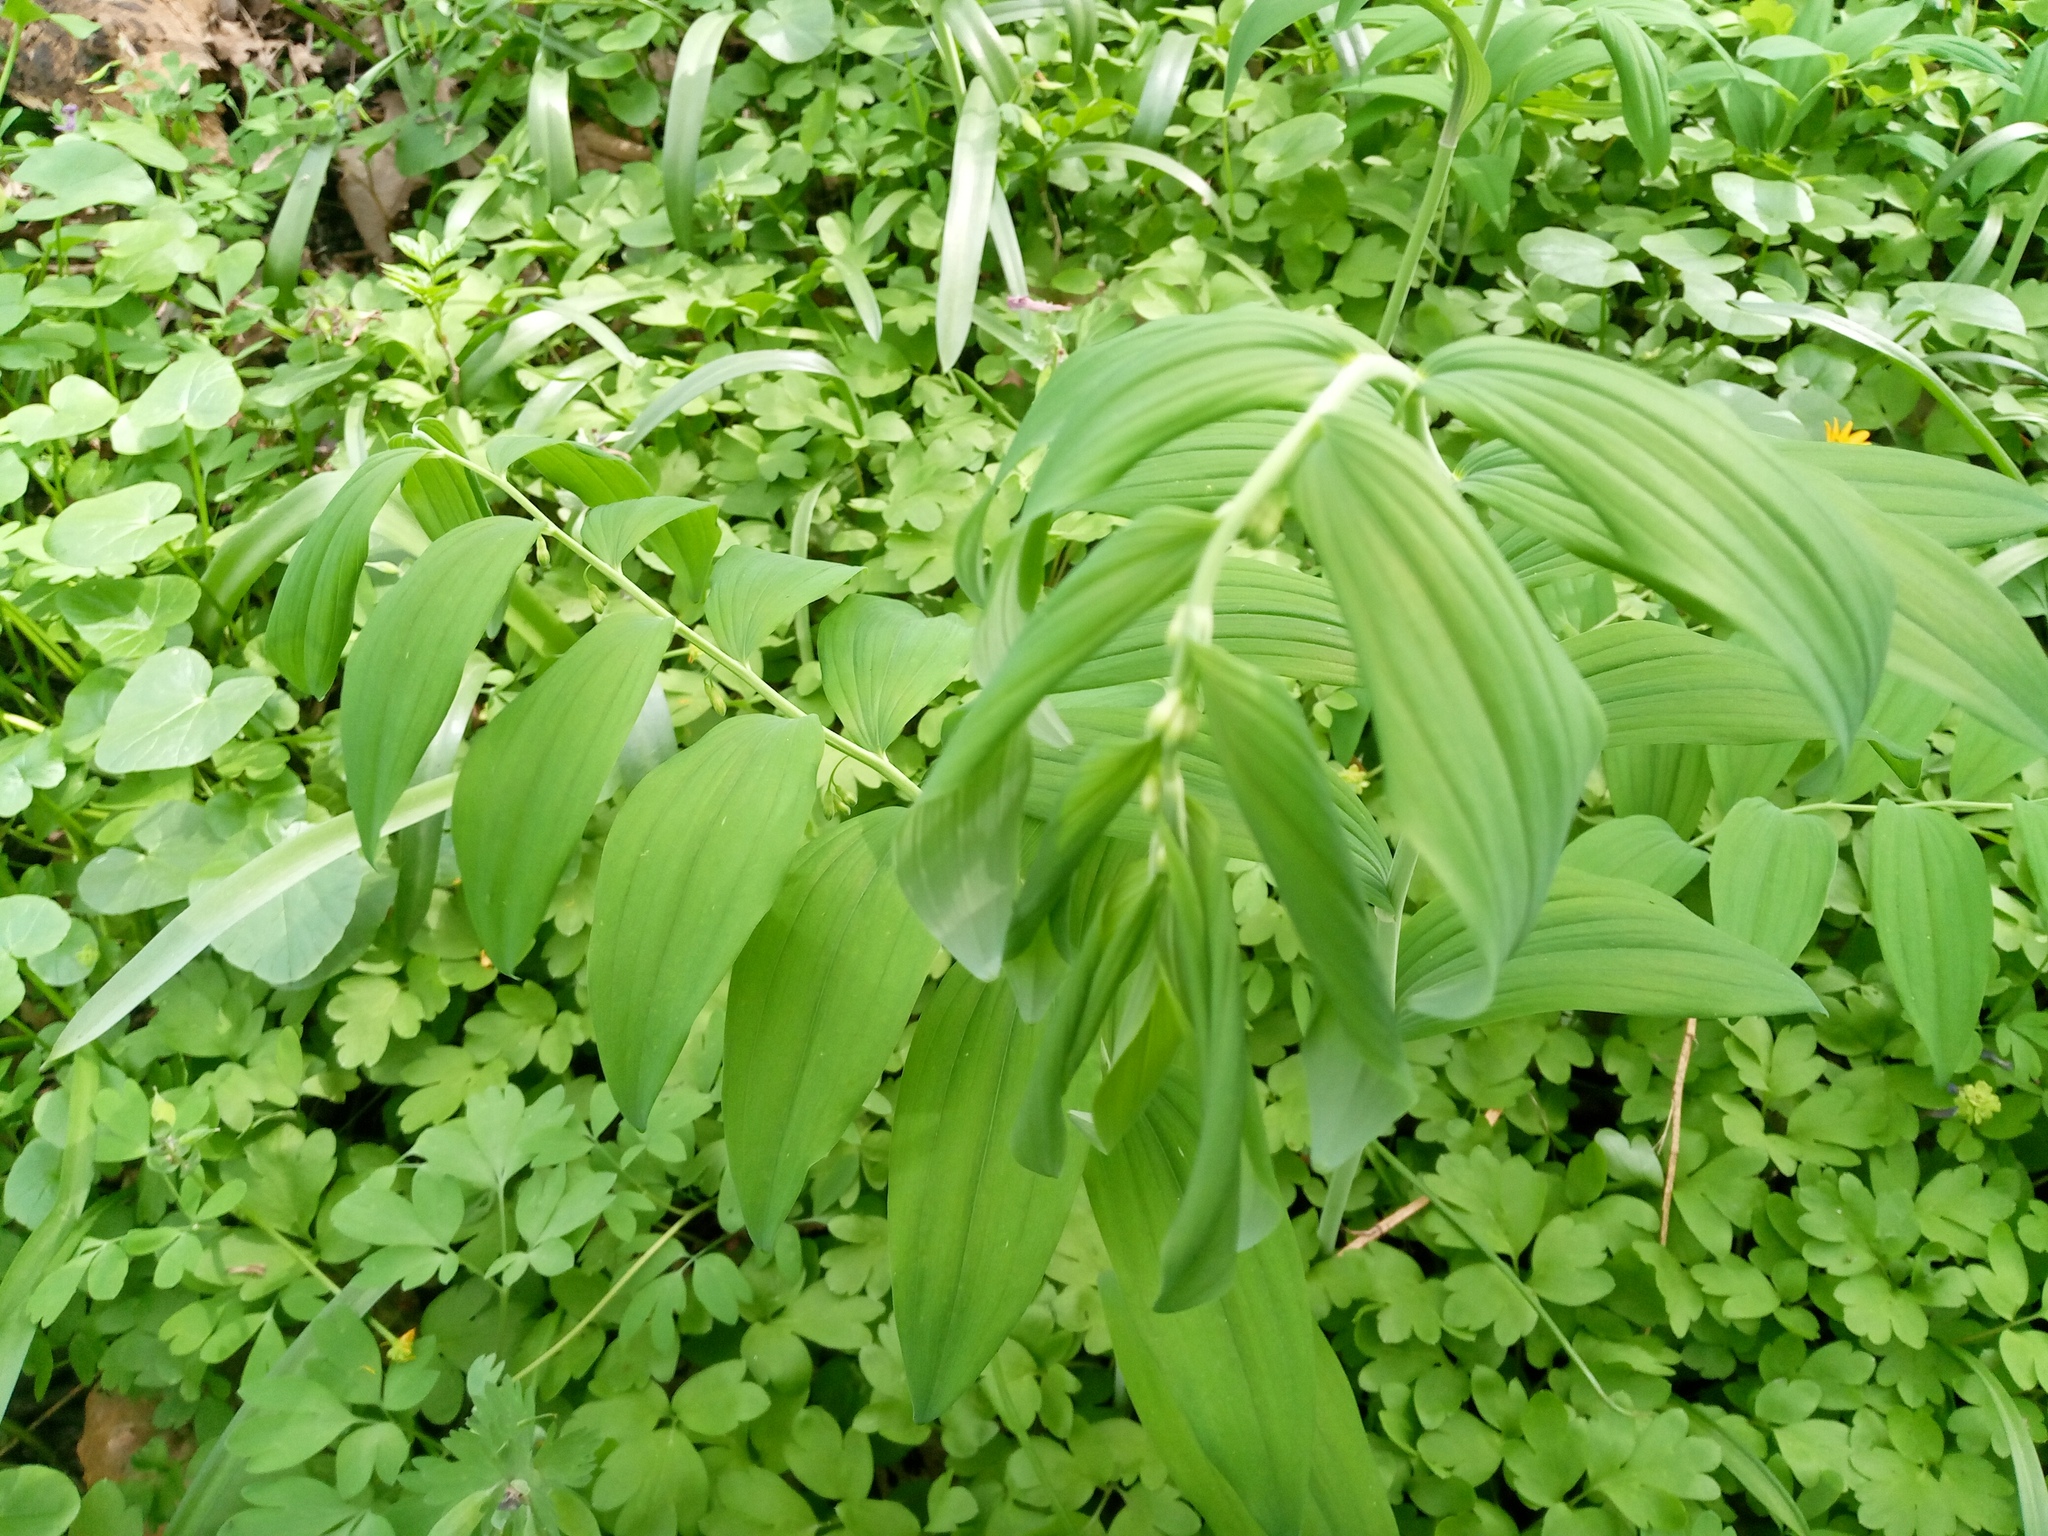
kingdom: Plantae
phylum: Tracheophyta
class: Liliopsida
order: Asparagales
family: Asparagaceae
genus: Polygonatum
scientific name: Polygonatum multiflorum
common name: Solomon's-seal
